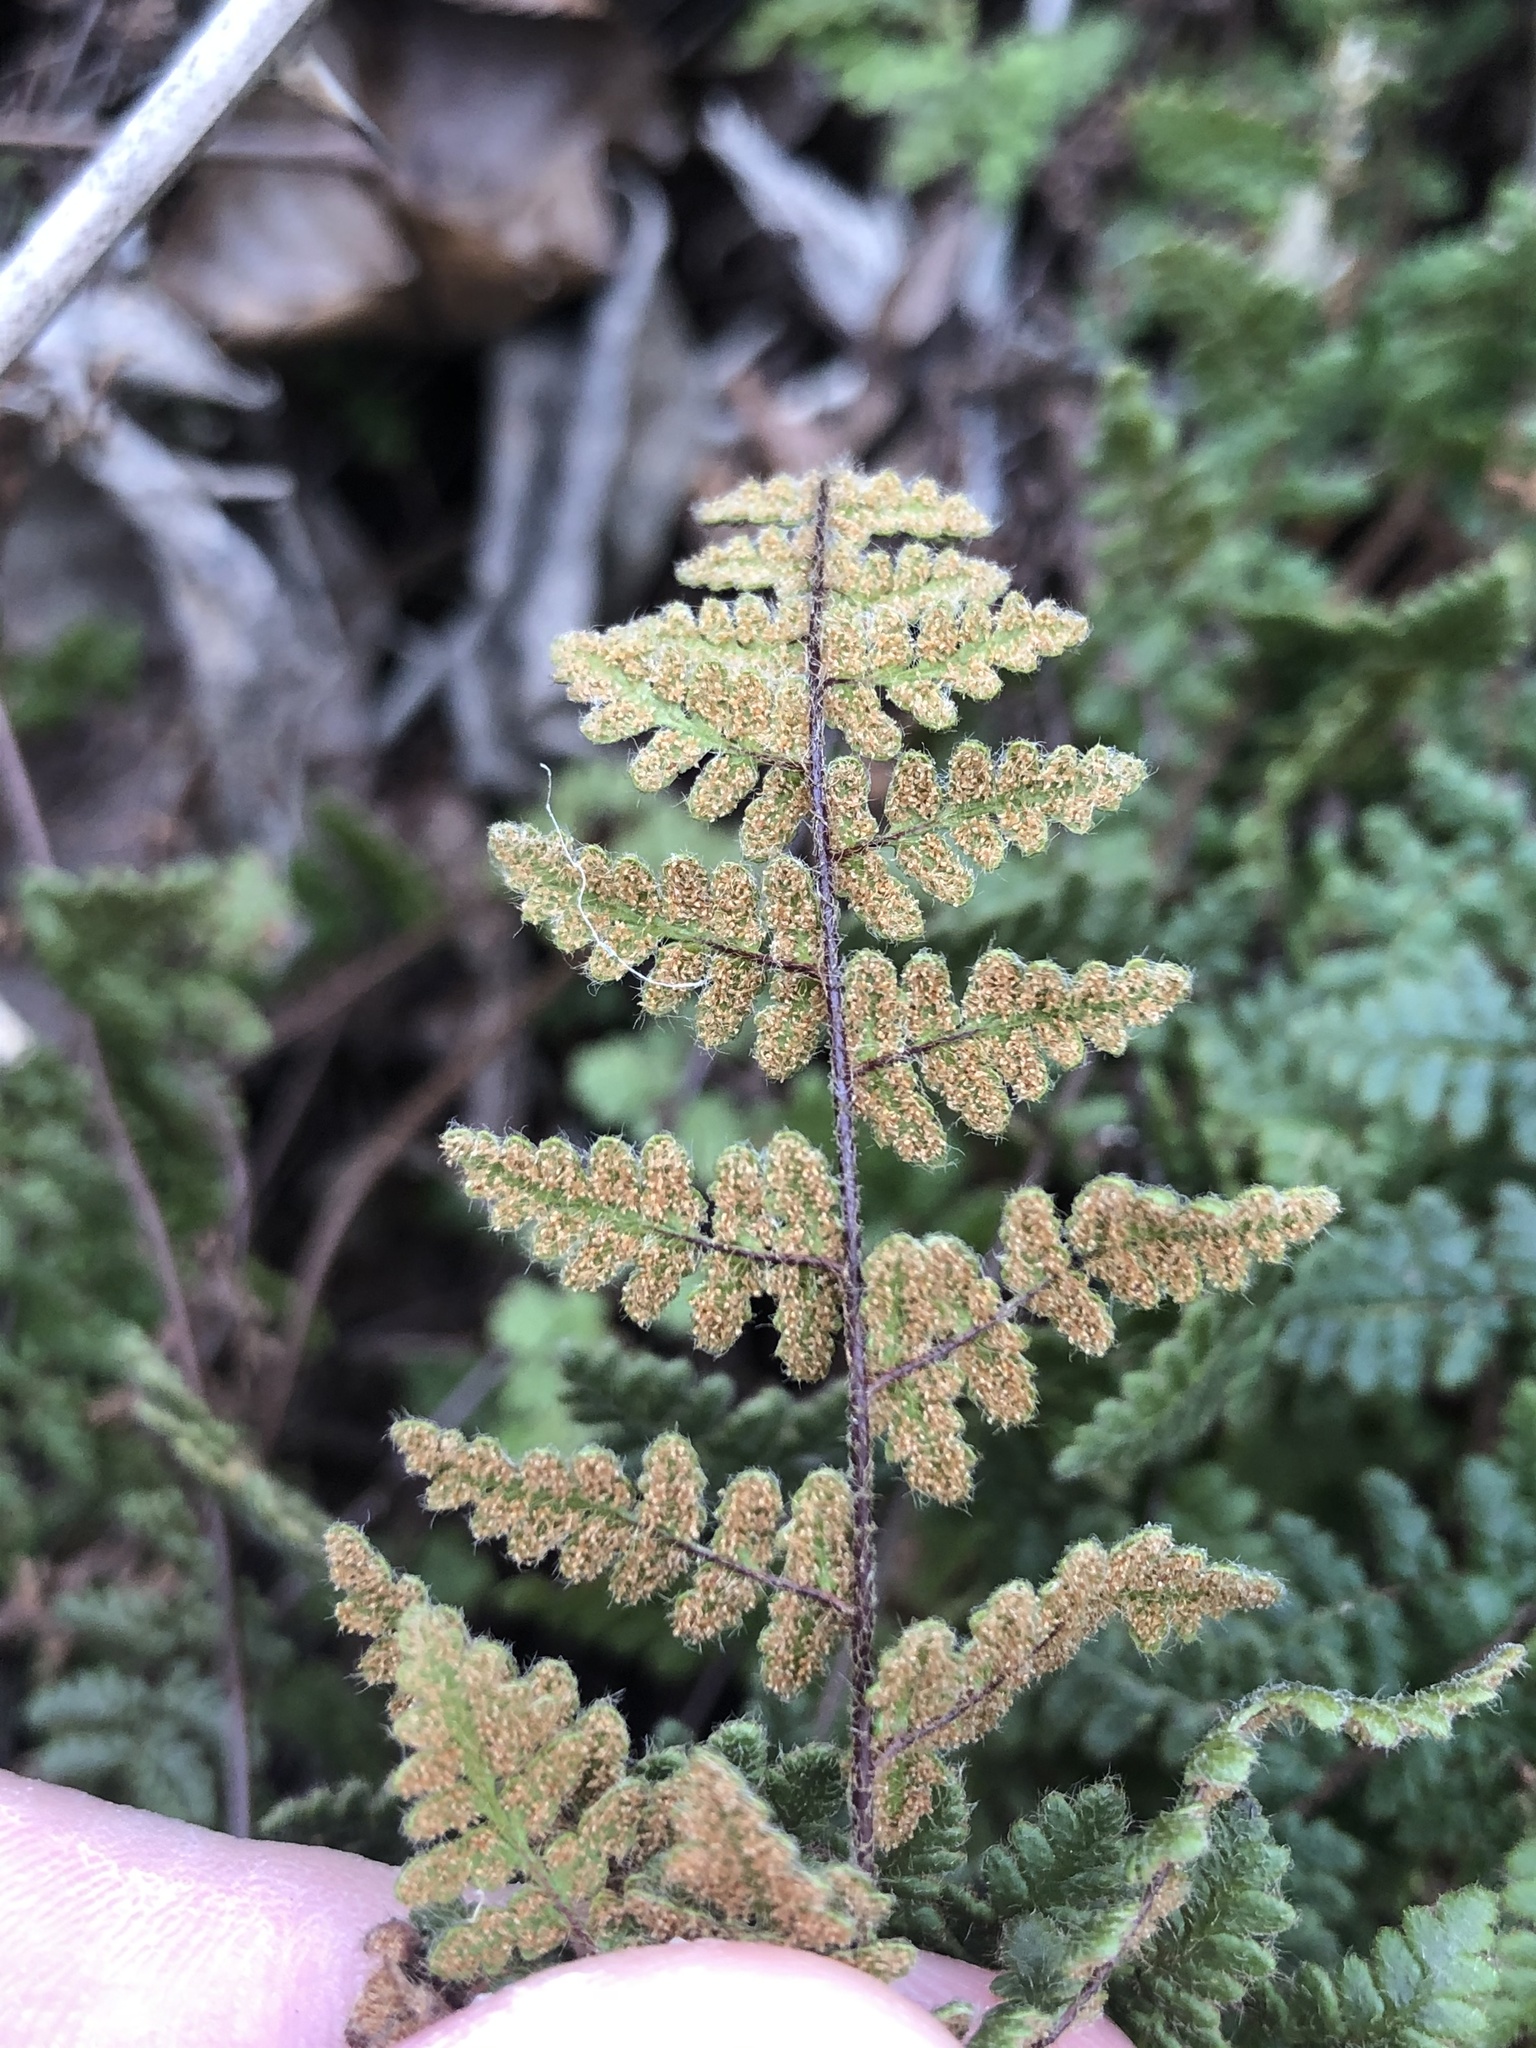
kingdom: Plantae
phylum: Tracheophyta
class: Polypodiopsida
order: Polypodiales
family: Pteridaceae
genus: Myriopteris
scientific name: Myriopteris lanosa
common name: Hairy lip fern
